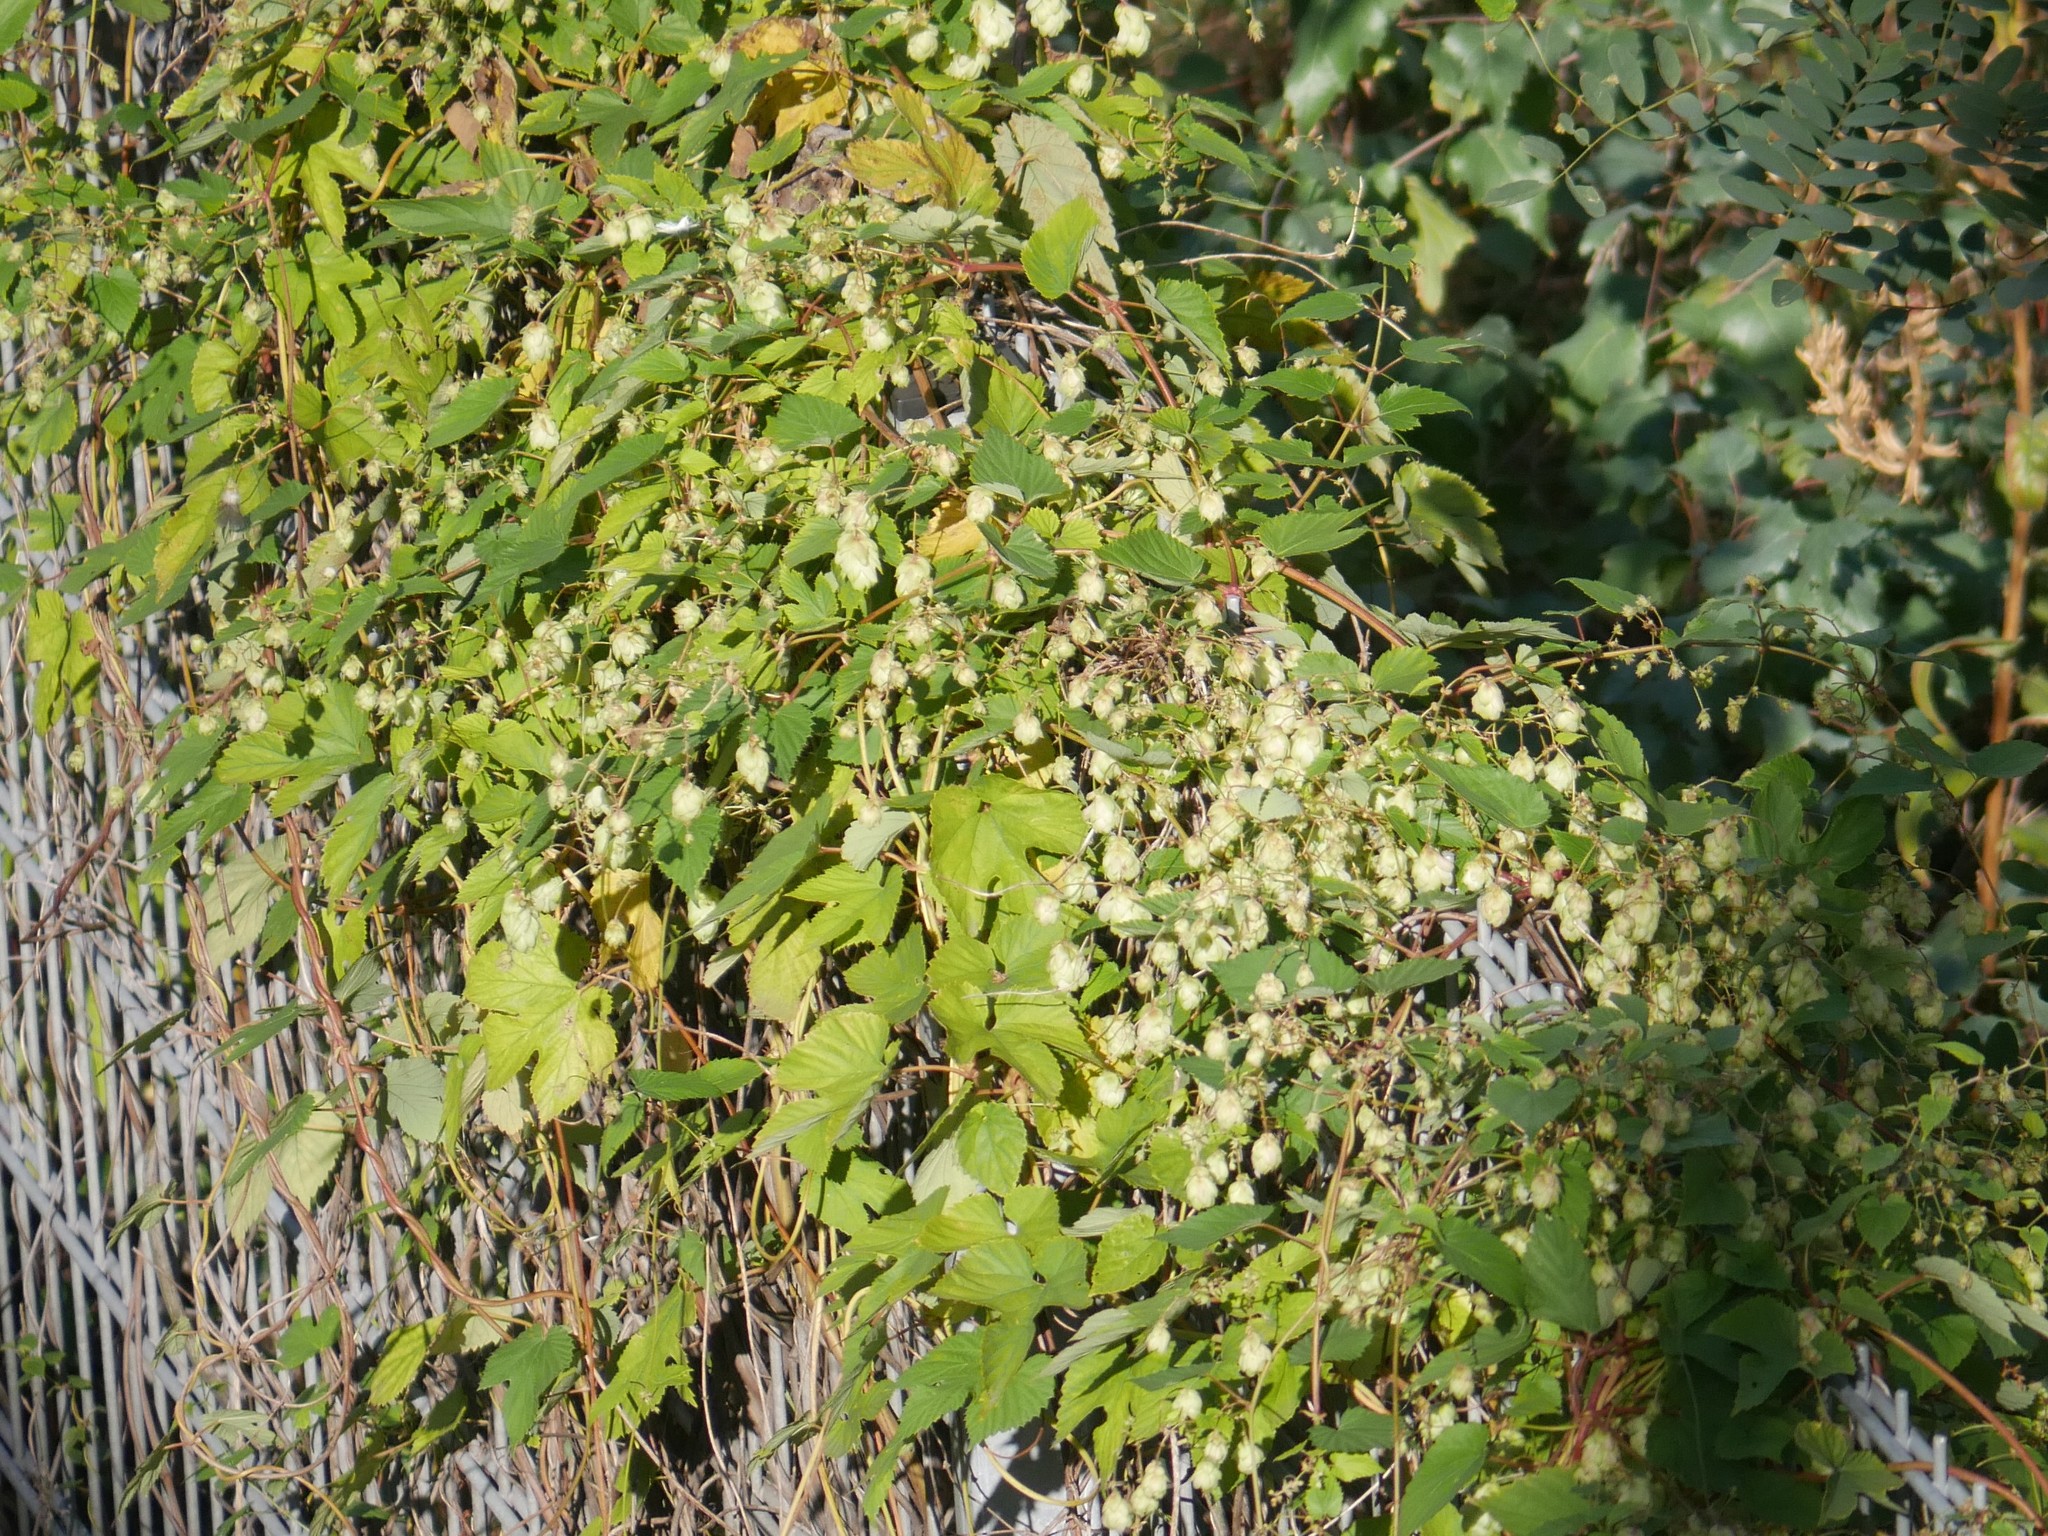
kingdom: Plantae
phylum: Tracheophyta
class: Magnoliopsida
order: Rosales
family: Cannabaceae
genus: Humulus
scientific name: Humulus lupulus
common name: Hop
